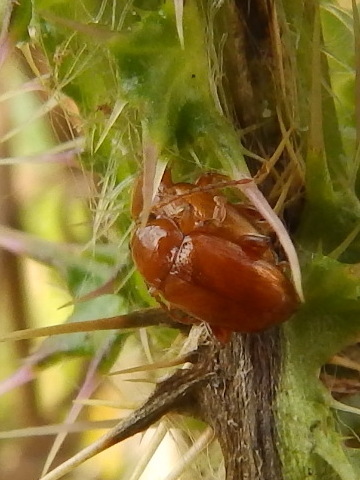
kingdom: Animalia
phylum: Arthropoda
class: Insecta
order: Coleoptera
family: Chrysomelidae
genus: Neocrepidodera
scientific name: Neocrepidodera transversa
